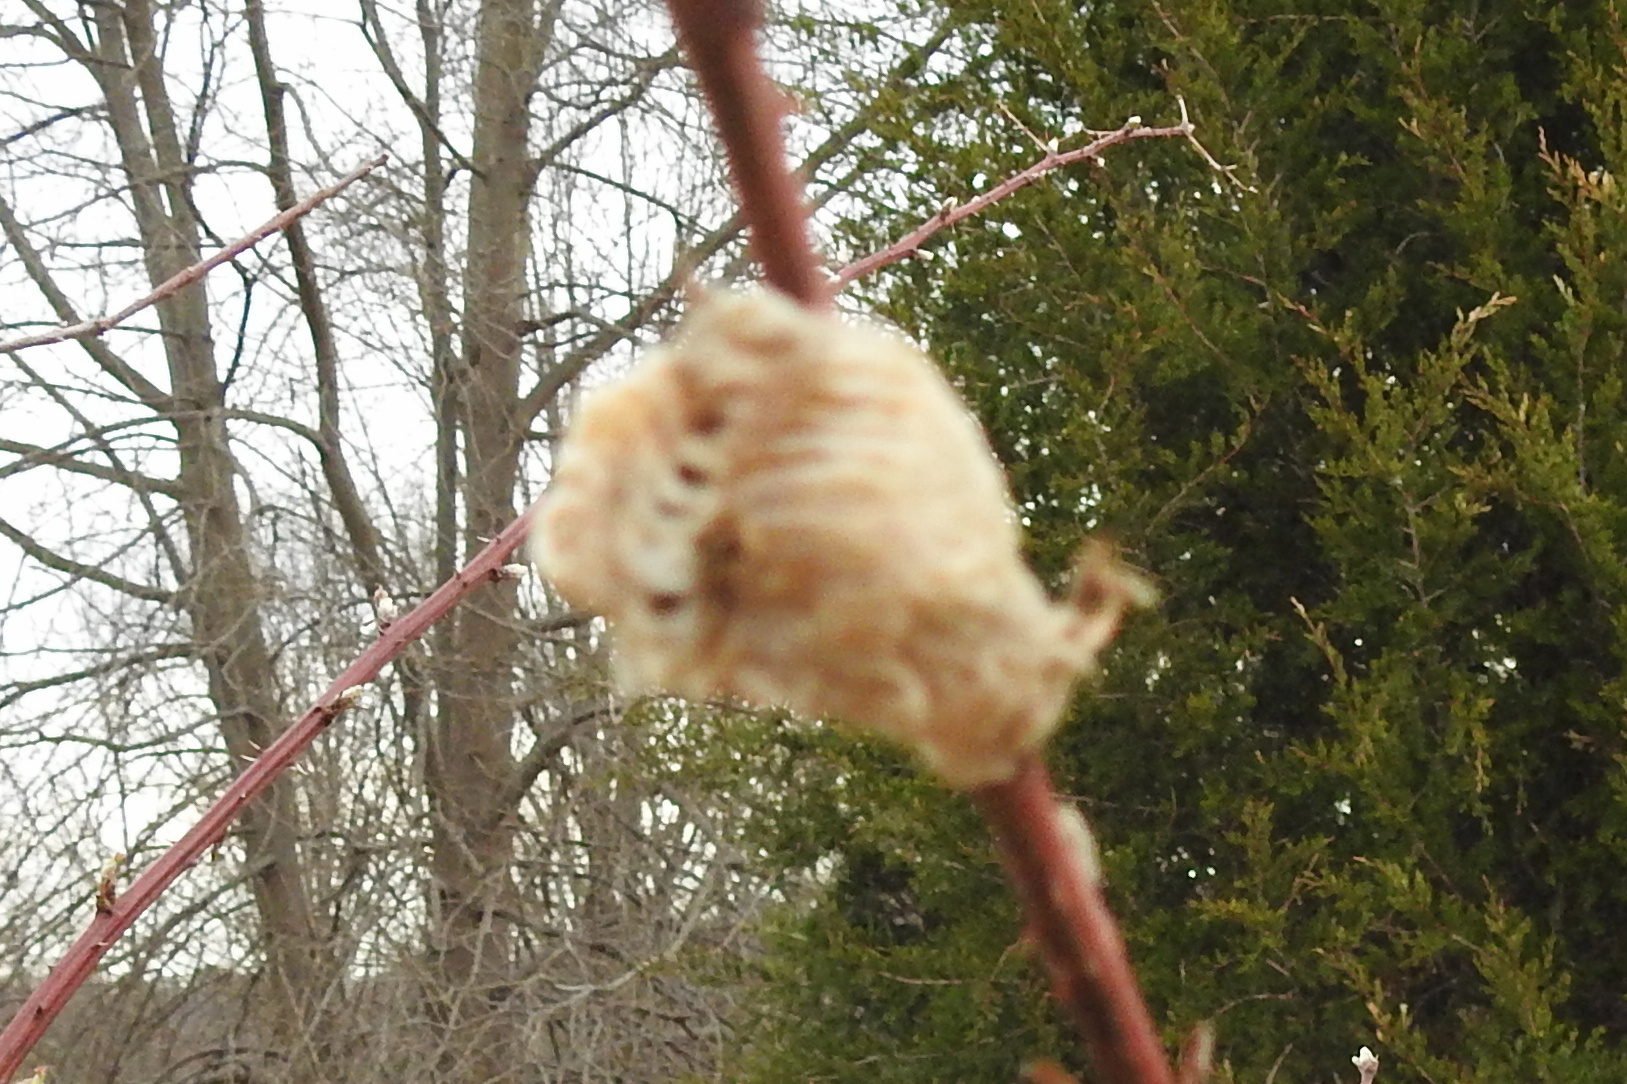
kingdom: Animalia
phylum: Arthropoda
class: Insecta
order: Mantodea
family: Mantidae
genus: Tenodera
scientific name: Tenodera sinensis
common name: Chinese mantis
